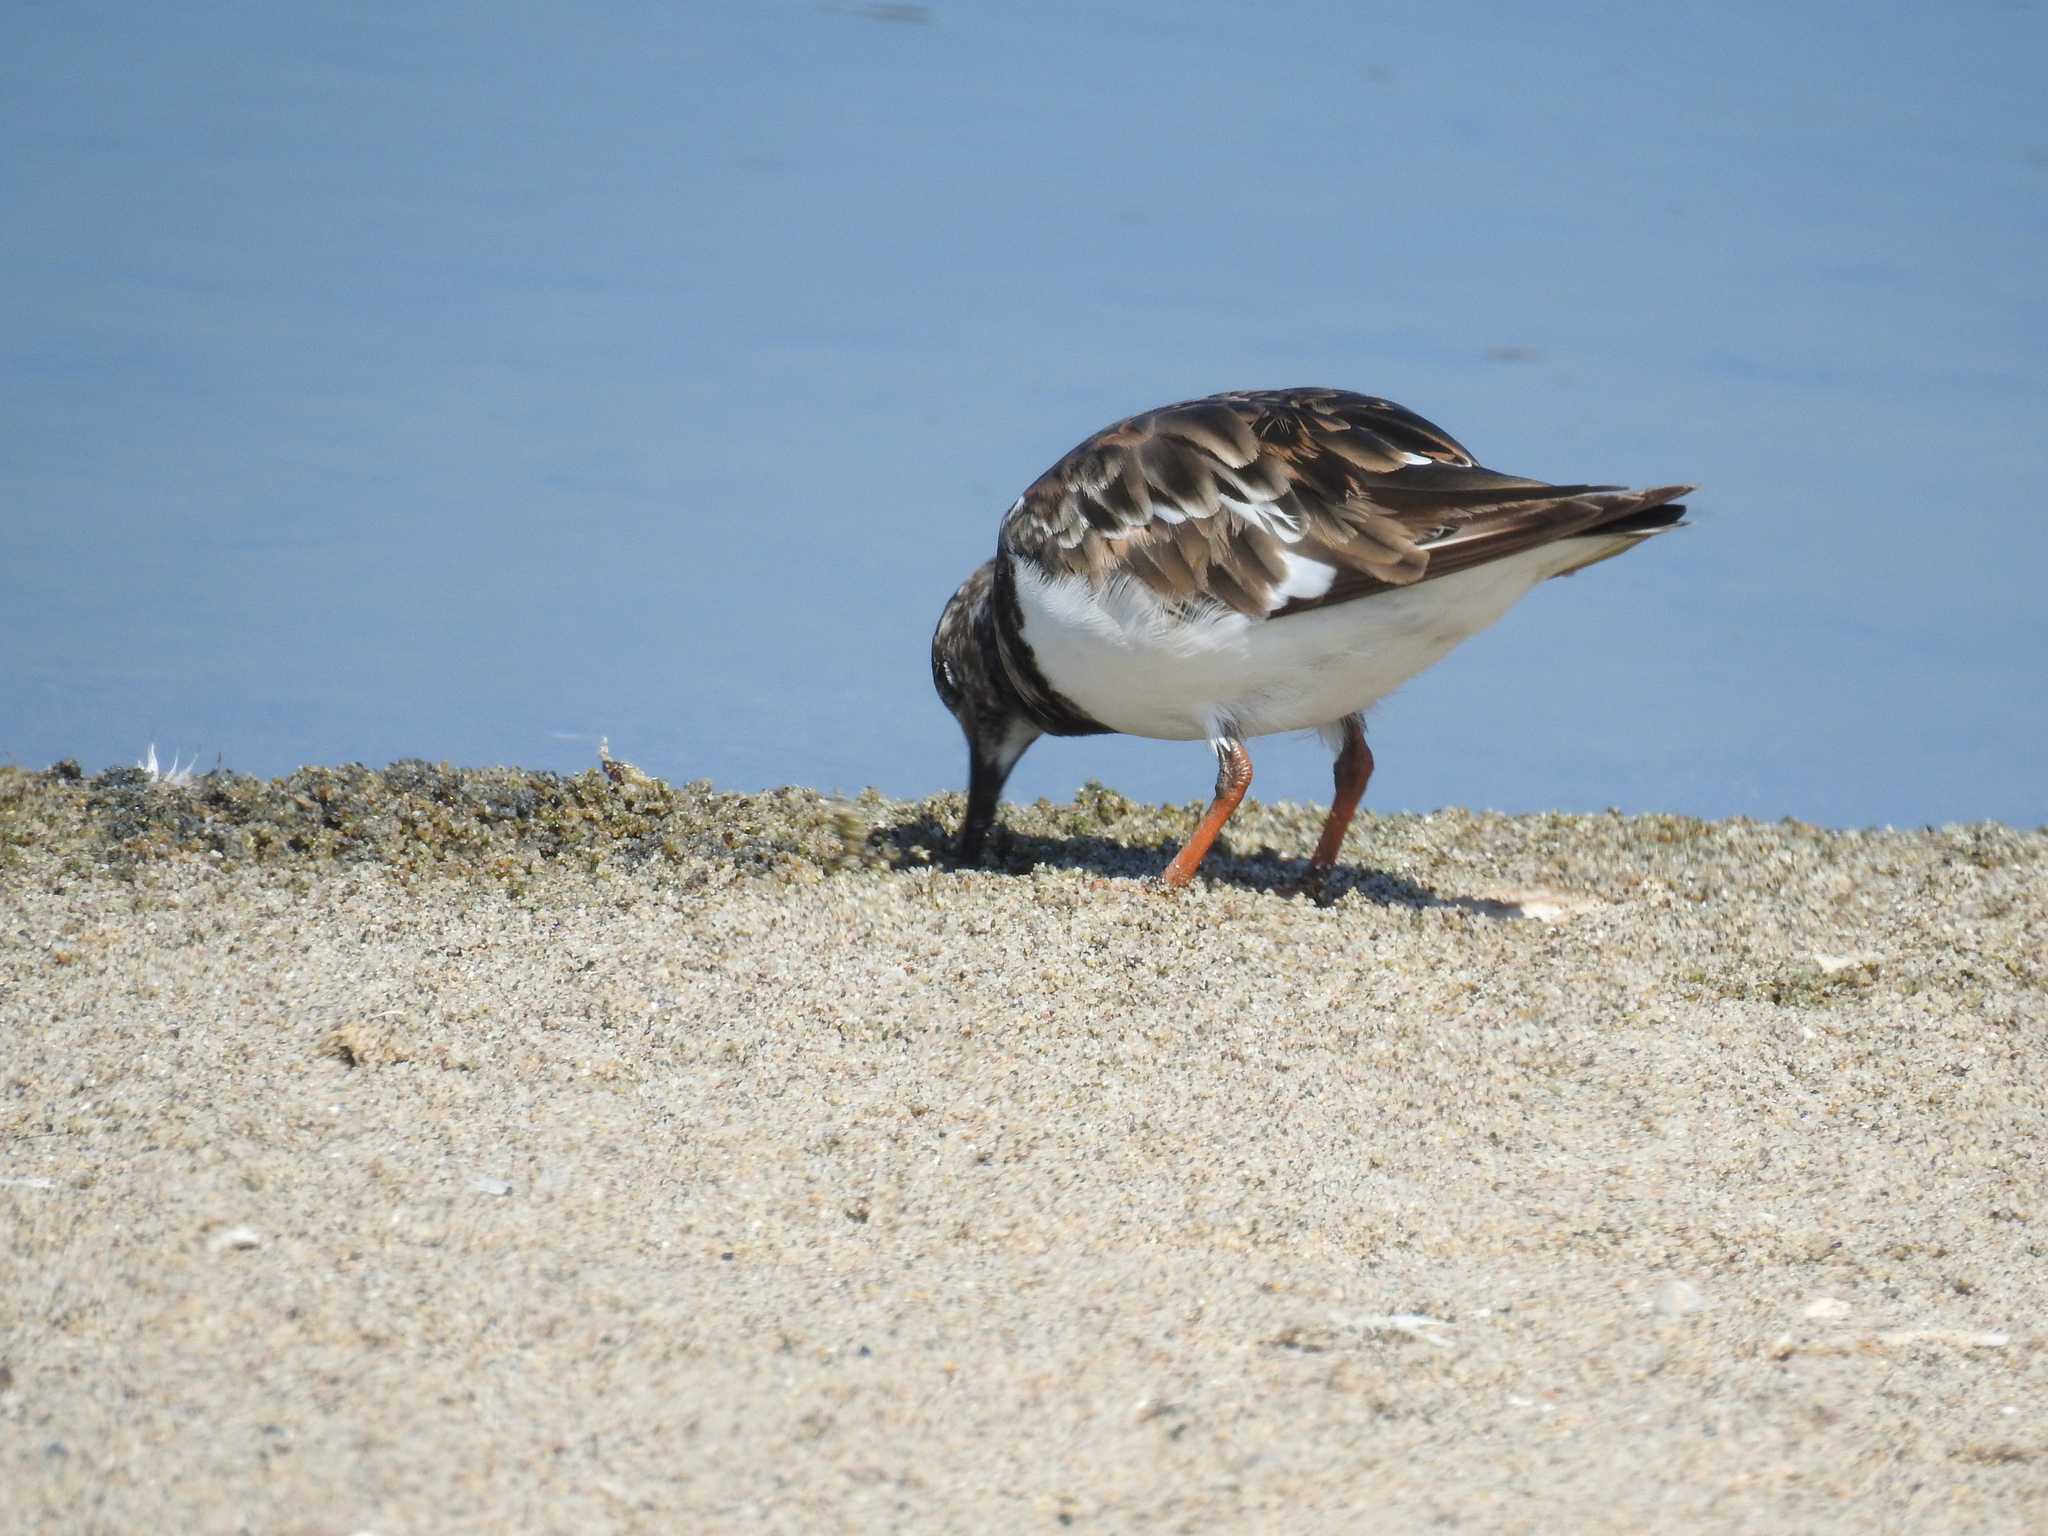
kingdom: Animalia
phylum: Chordata
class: Aves
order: Charadriiformes
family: Scolopacidae
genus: Arenaria
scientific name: Arenaria interpres
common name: Ruddy turnstone
